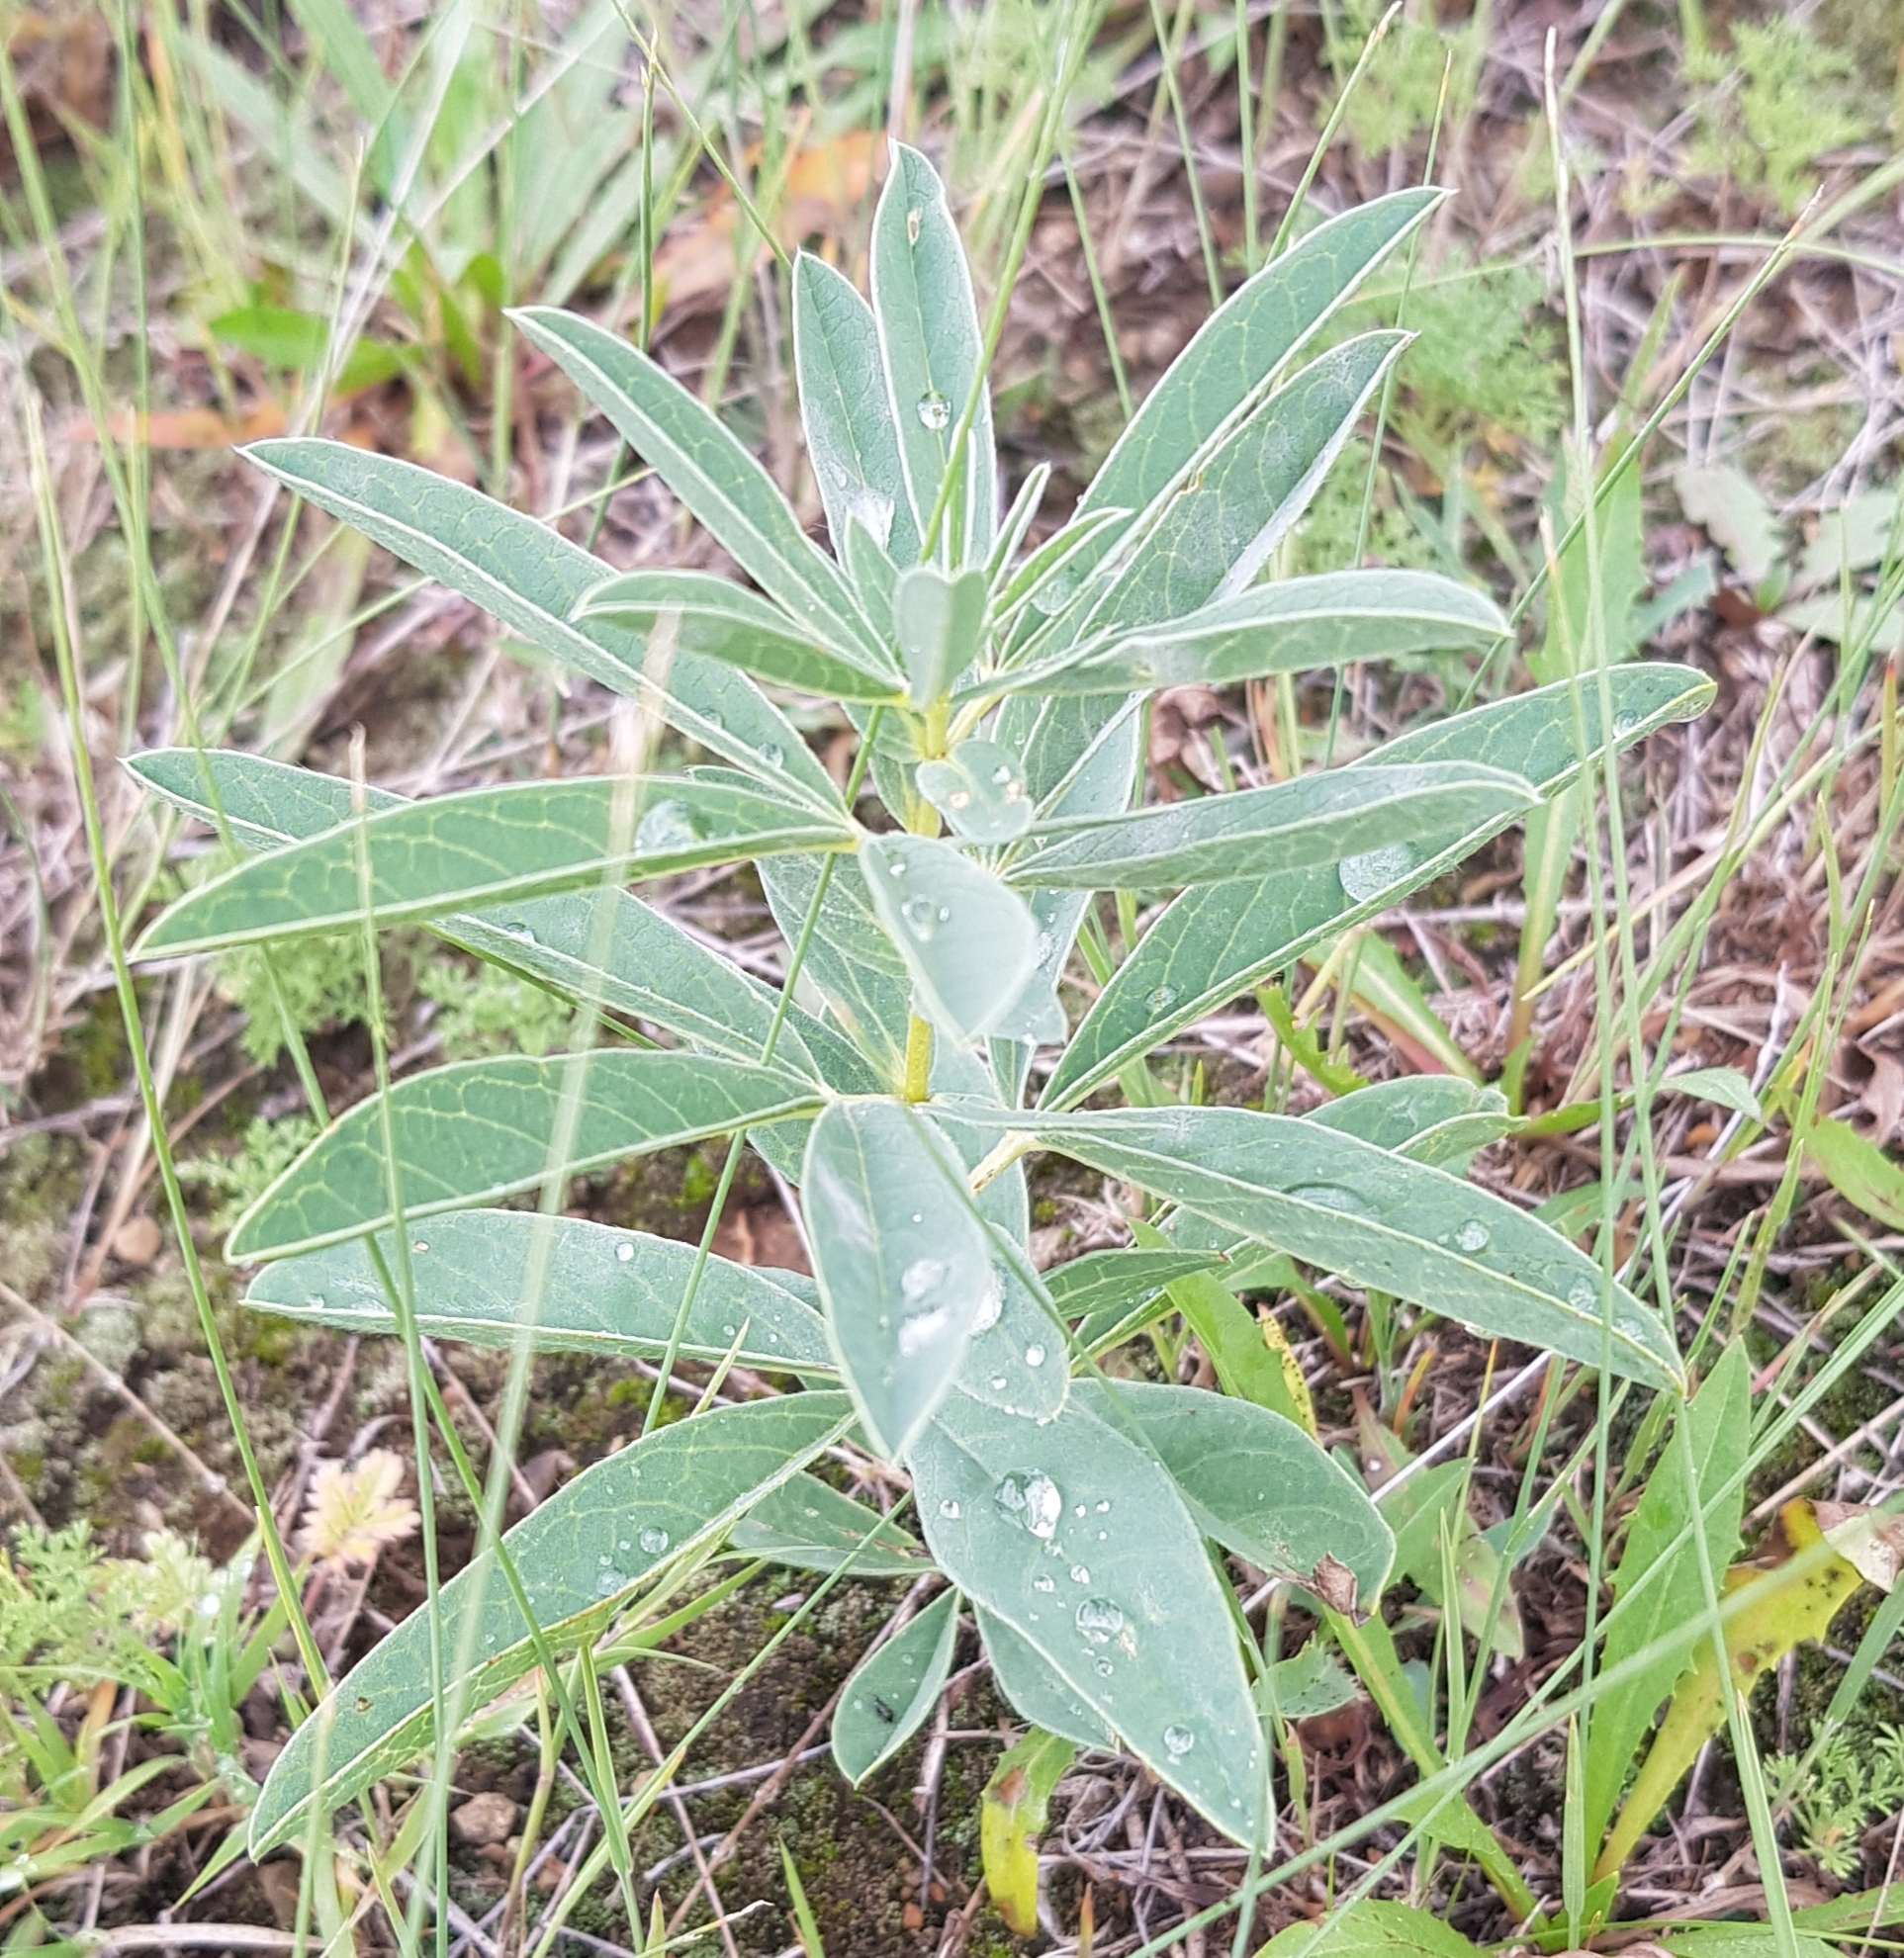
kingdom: Plantae
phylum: Tracheophyta
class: Magnoliopsida
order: Fabales
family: Fabaceae
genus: Thermopsis
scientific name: Thermopsis lanceolata
